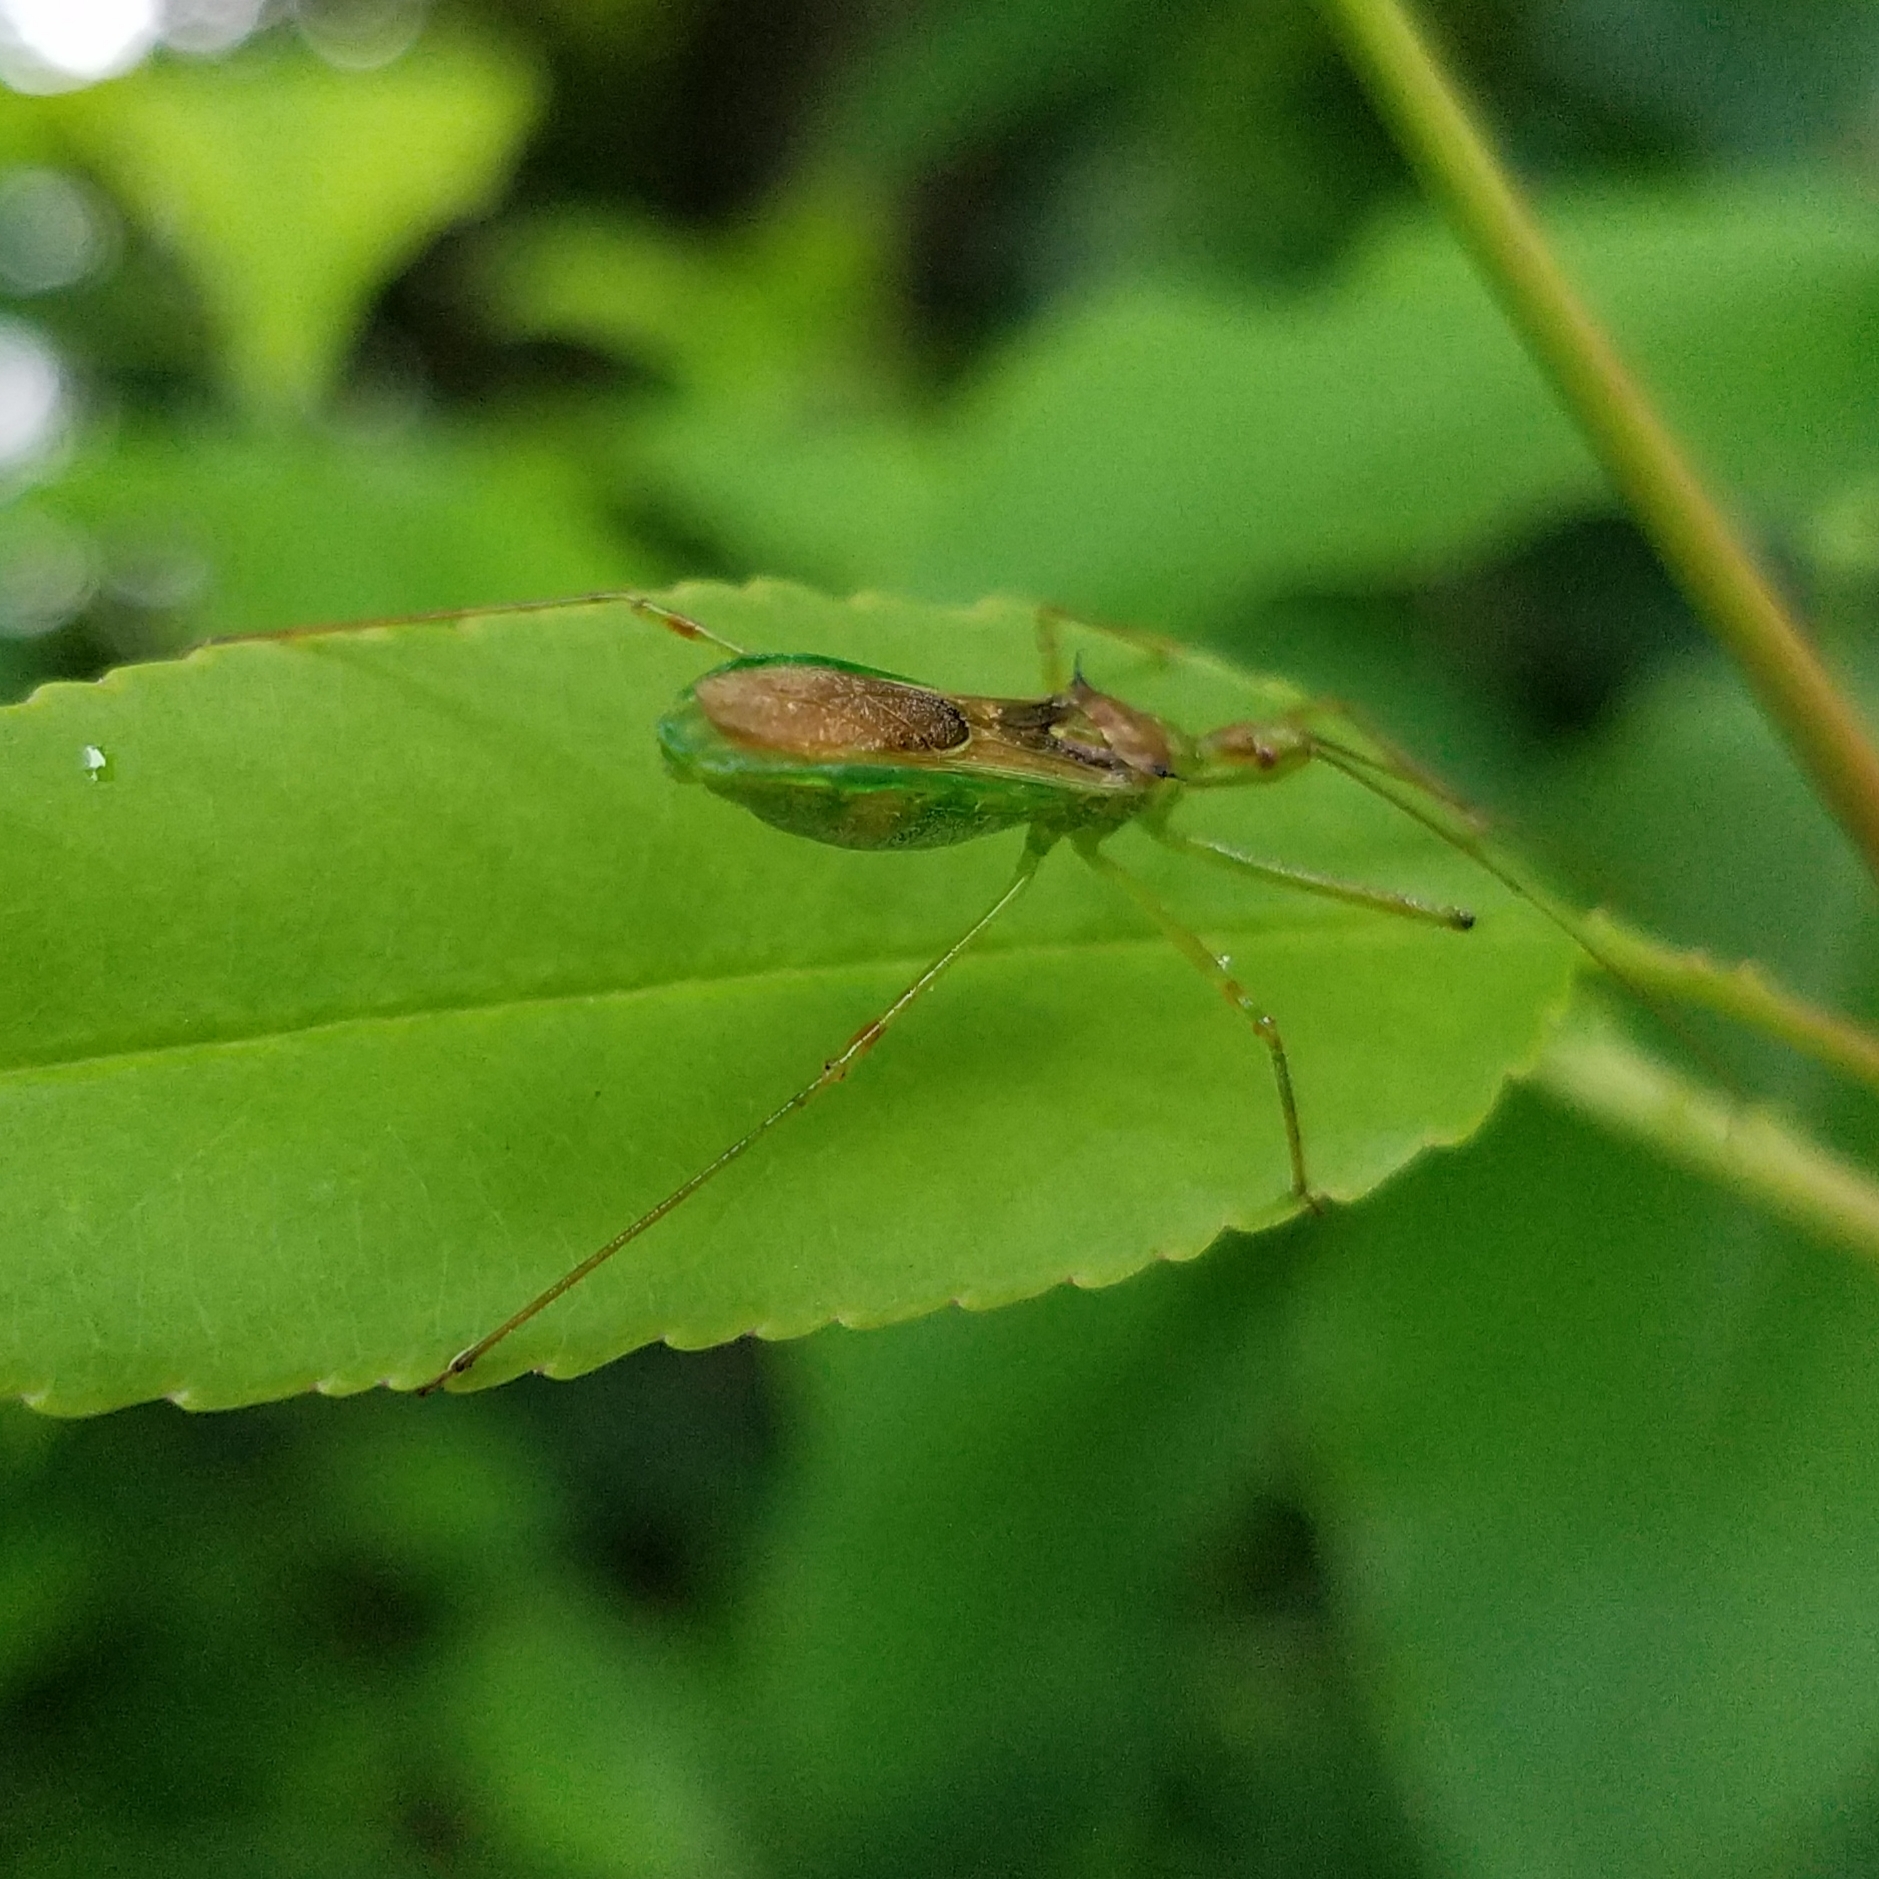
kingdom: Animalia
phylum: Arthropoda
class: Insecta
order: Hemiptera
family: Reduviidae
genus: Zelus
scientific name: Zelus luridus
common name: Pale green assassin bug
